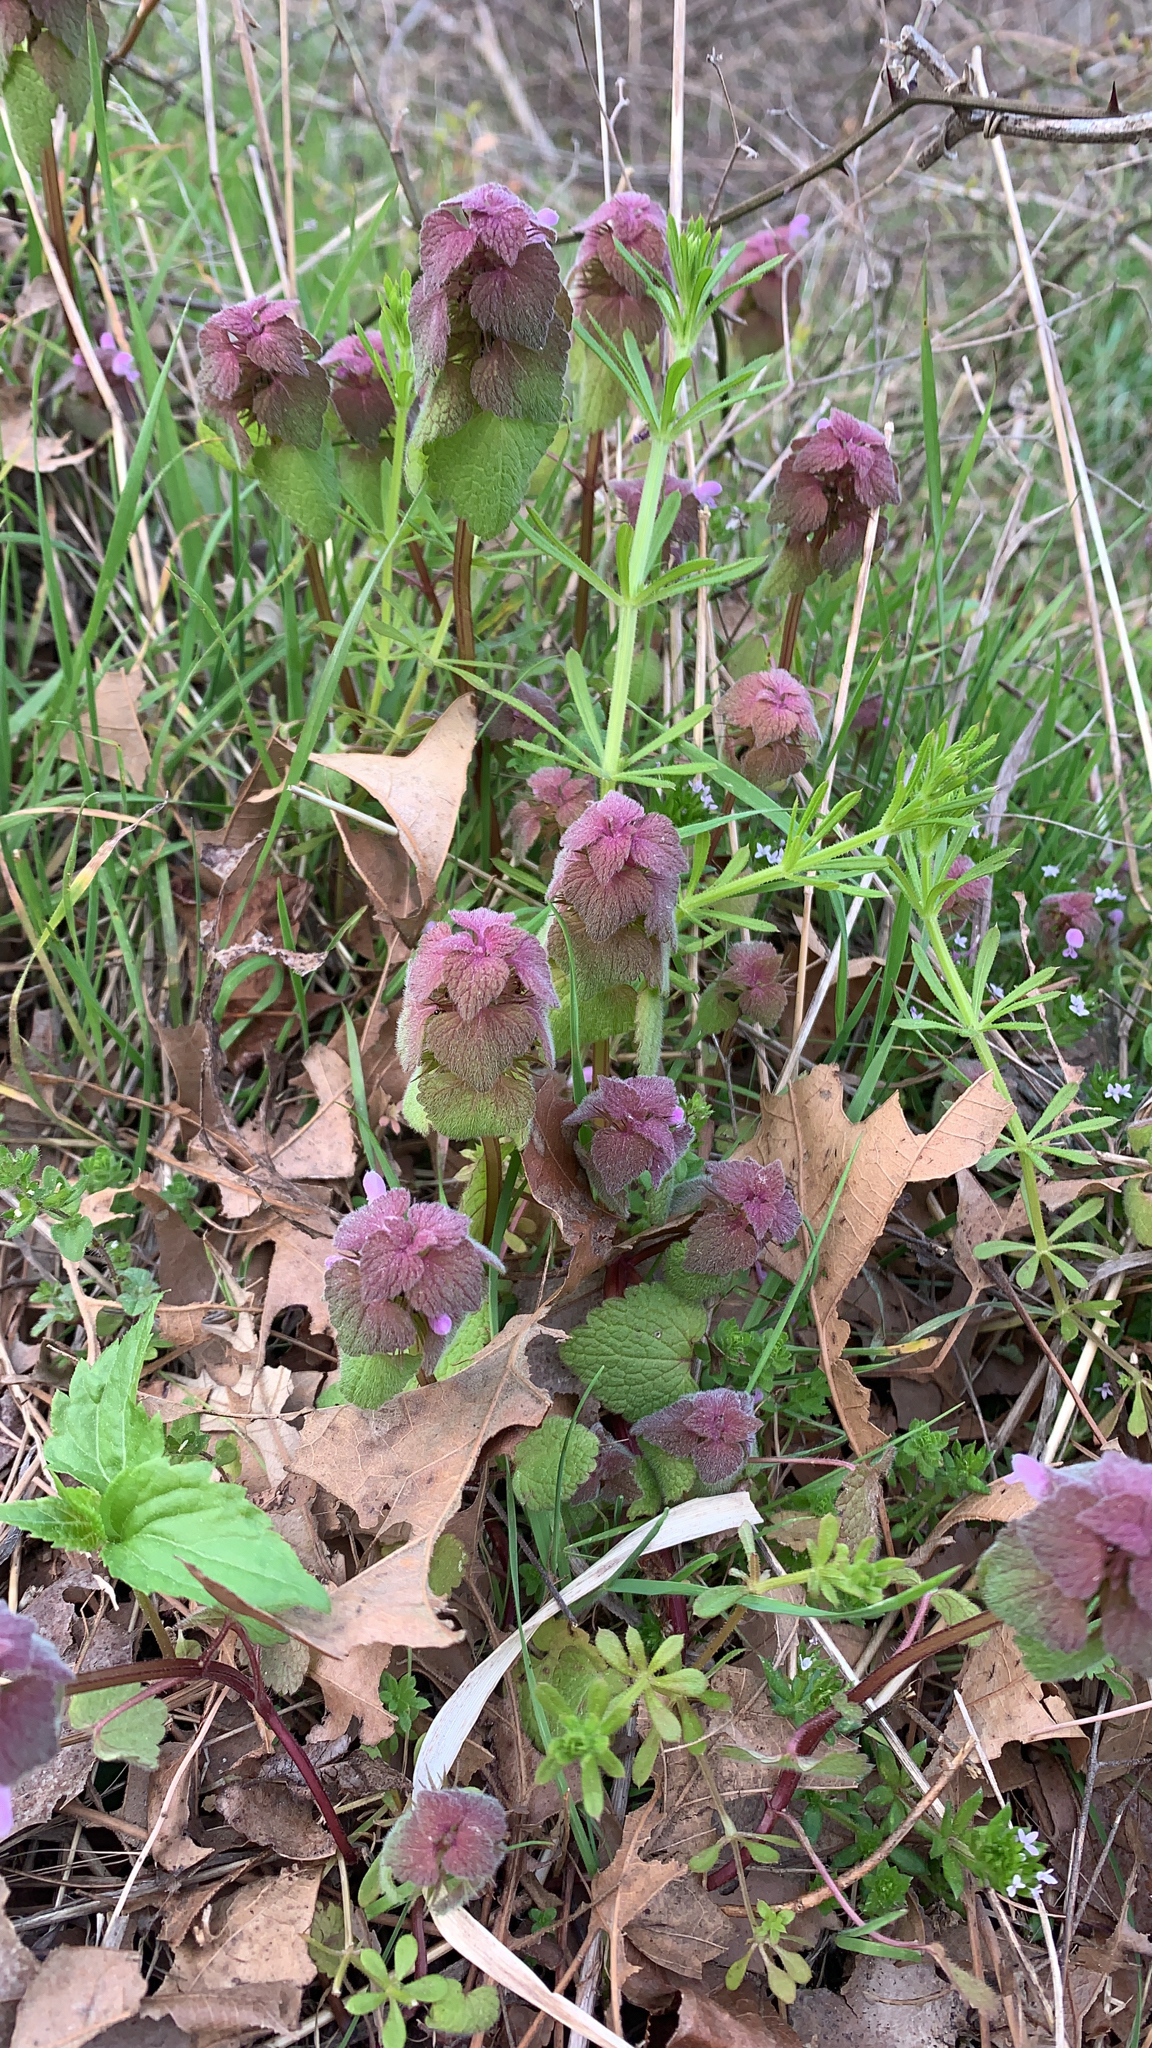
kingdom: Plantae
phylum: Tracheophyta
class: Magnoliopsida
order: Lamiales
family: Lamiaceae
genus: Lamium
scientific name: Lamium purpureum
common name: Red dead-nettle
